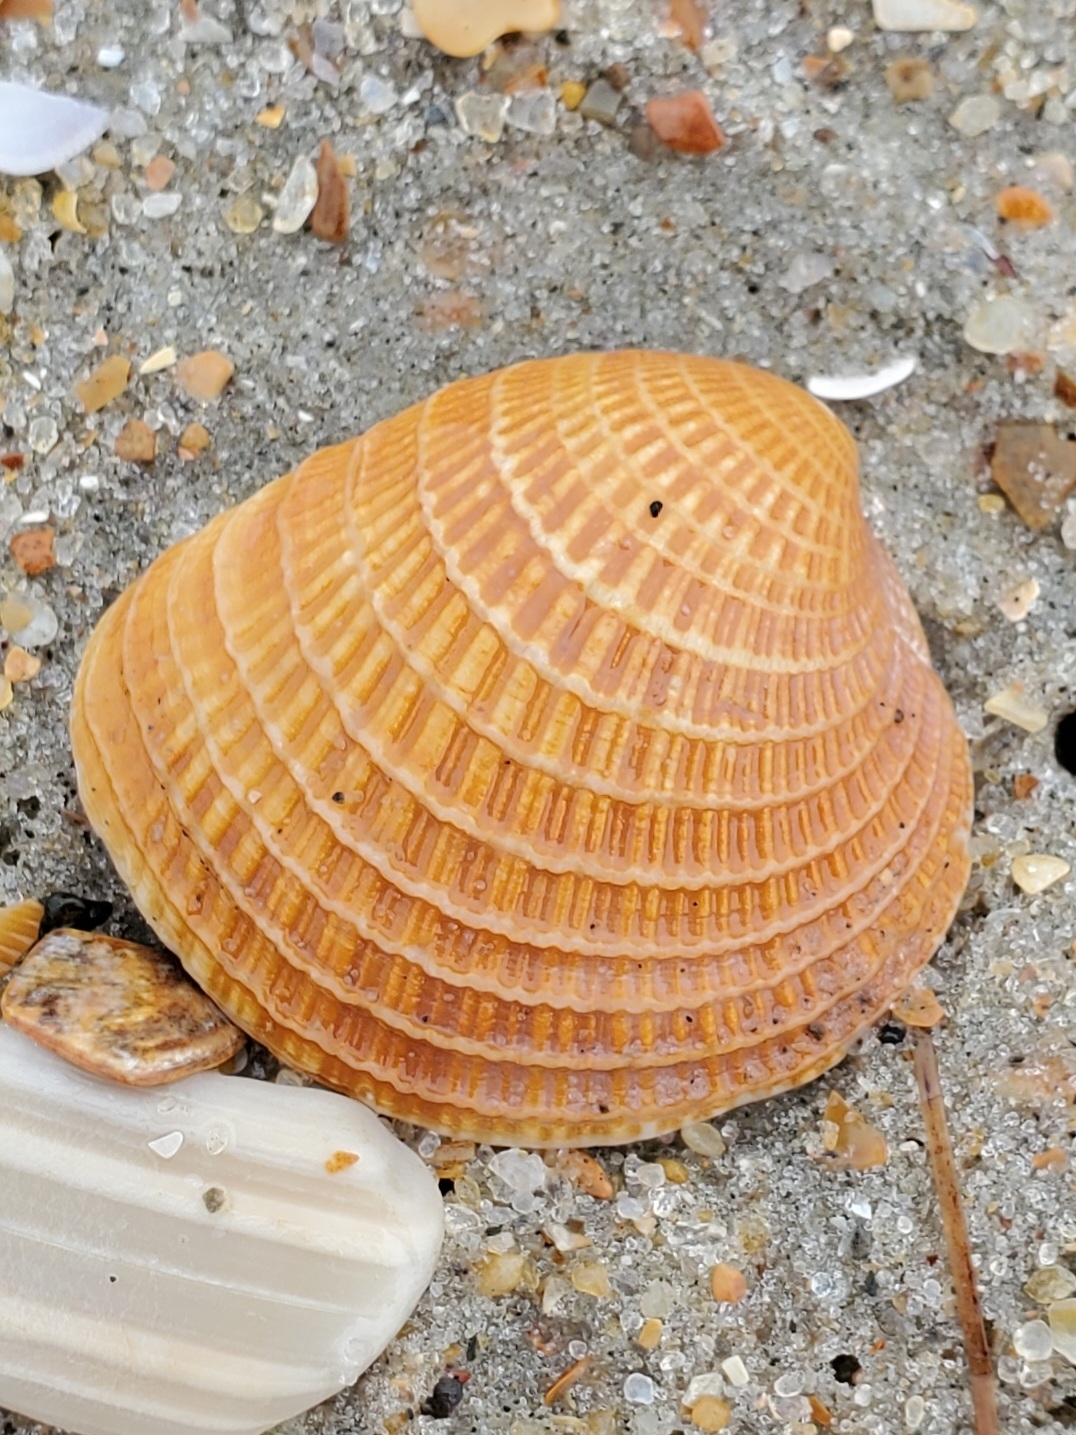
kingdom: Animalia
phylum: Mollusca
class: Bivalvia
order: Venerida
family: Veneridae
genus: Chione
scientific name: Chione elevata
